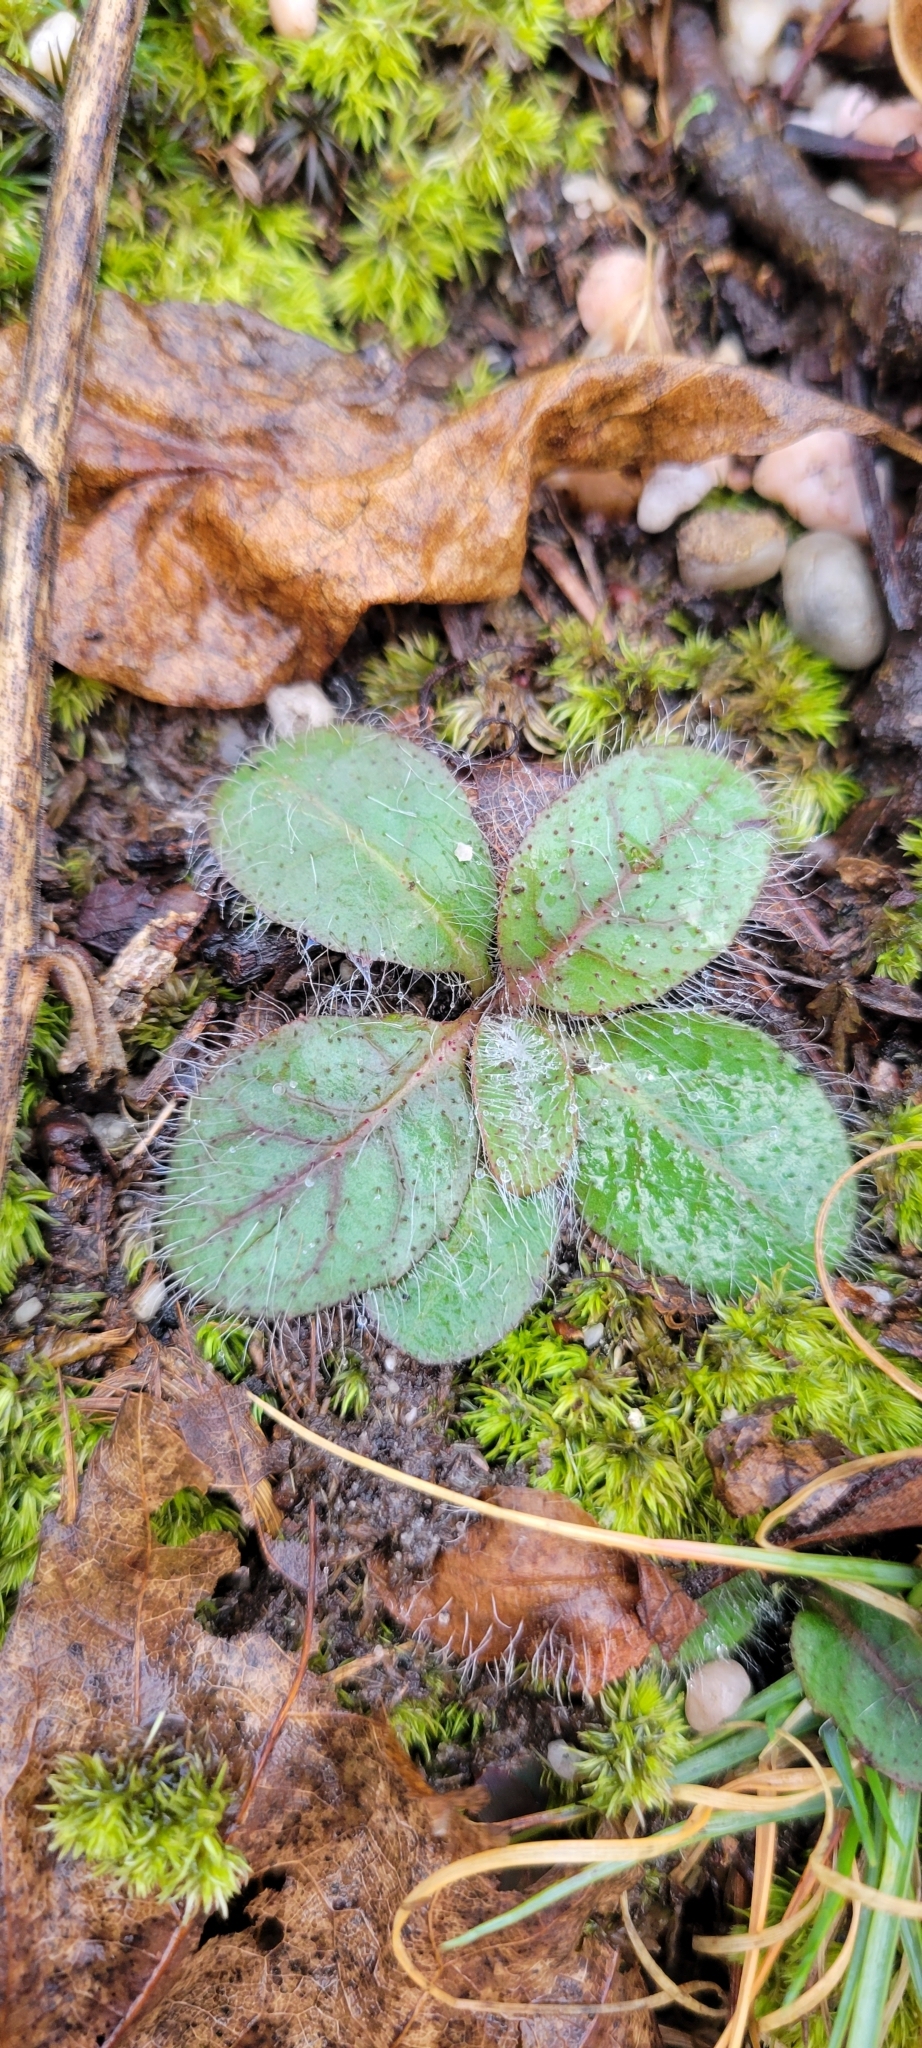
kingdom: Plantae
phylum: Tracheophyta
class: Magnoliopsida
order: Asterales
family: Asteraceae
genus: Hieracium
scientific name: Hieracium venosum
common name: Rattlesnake hawkweed
